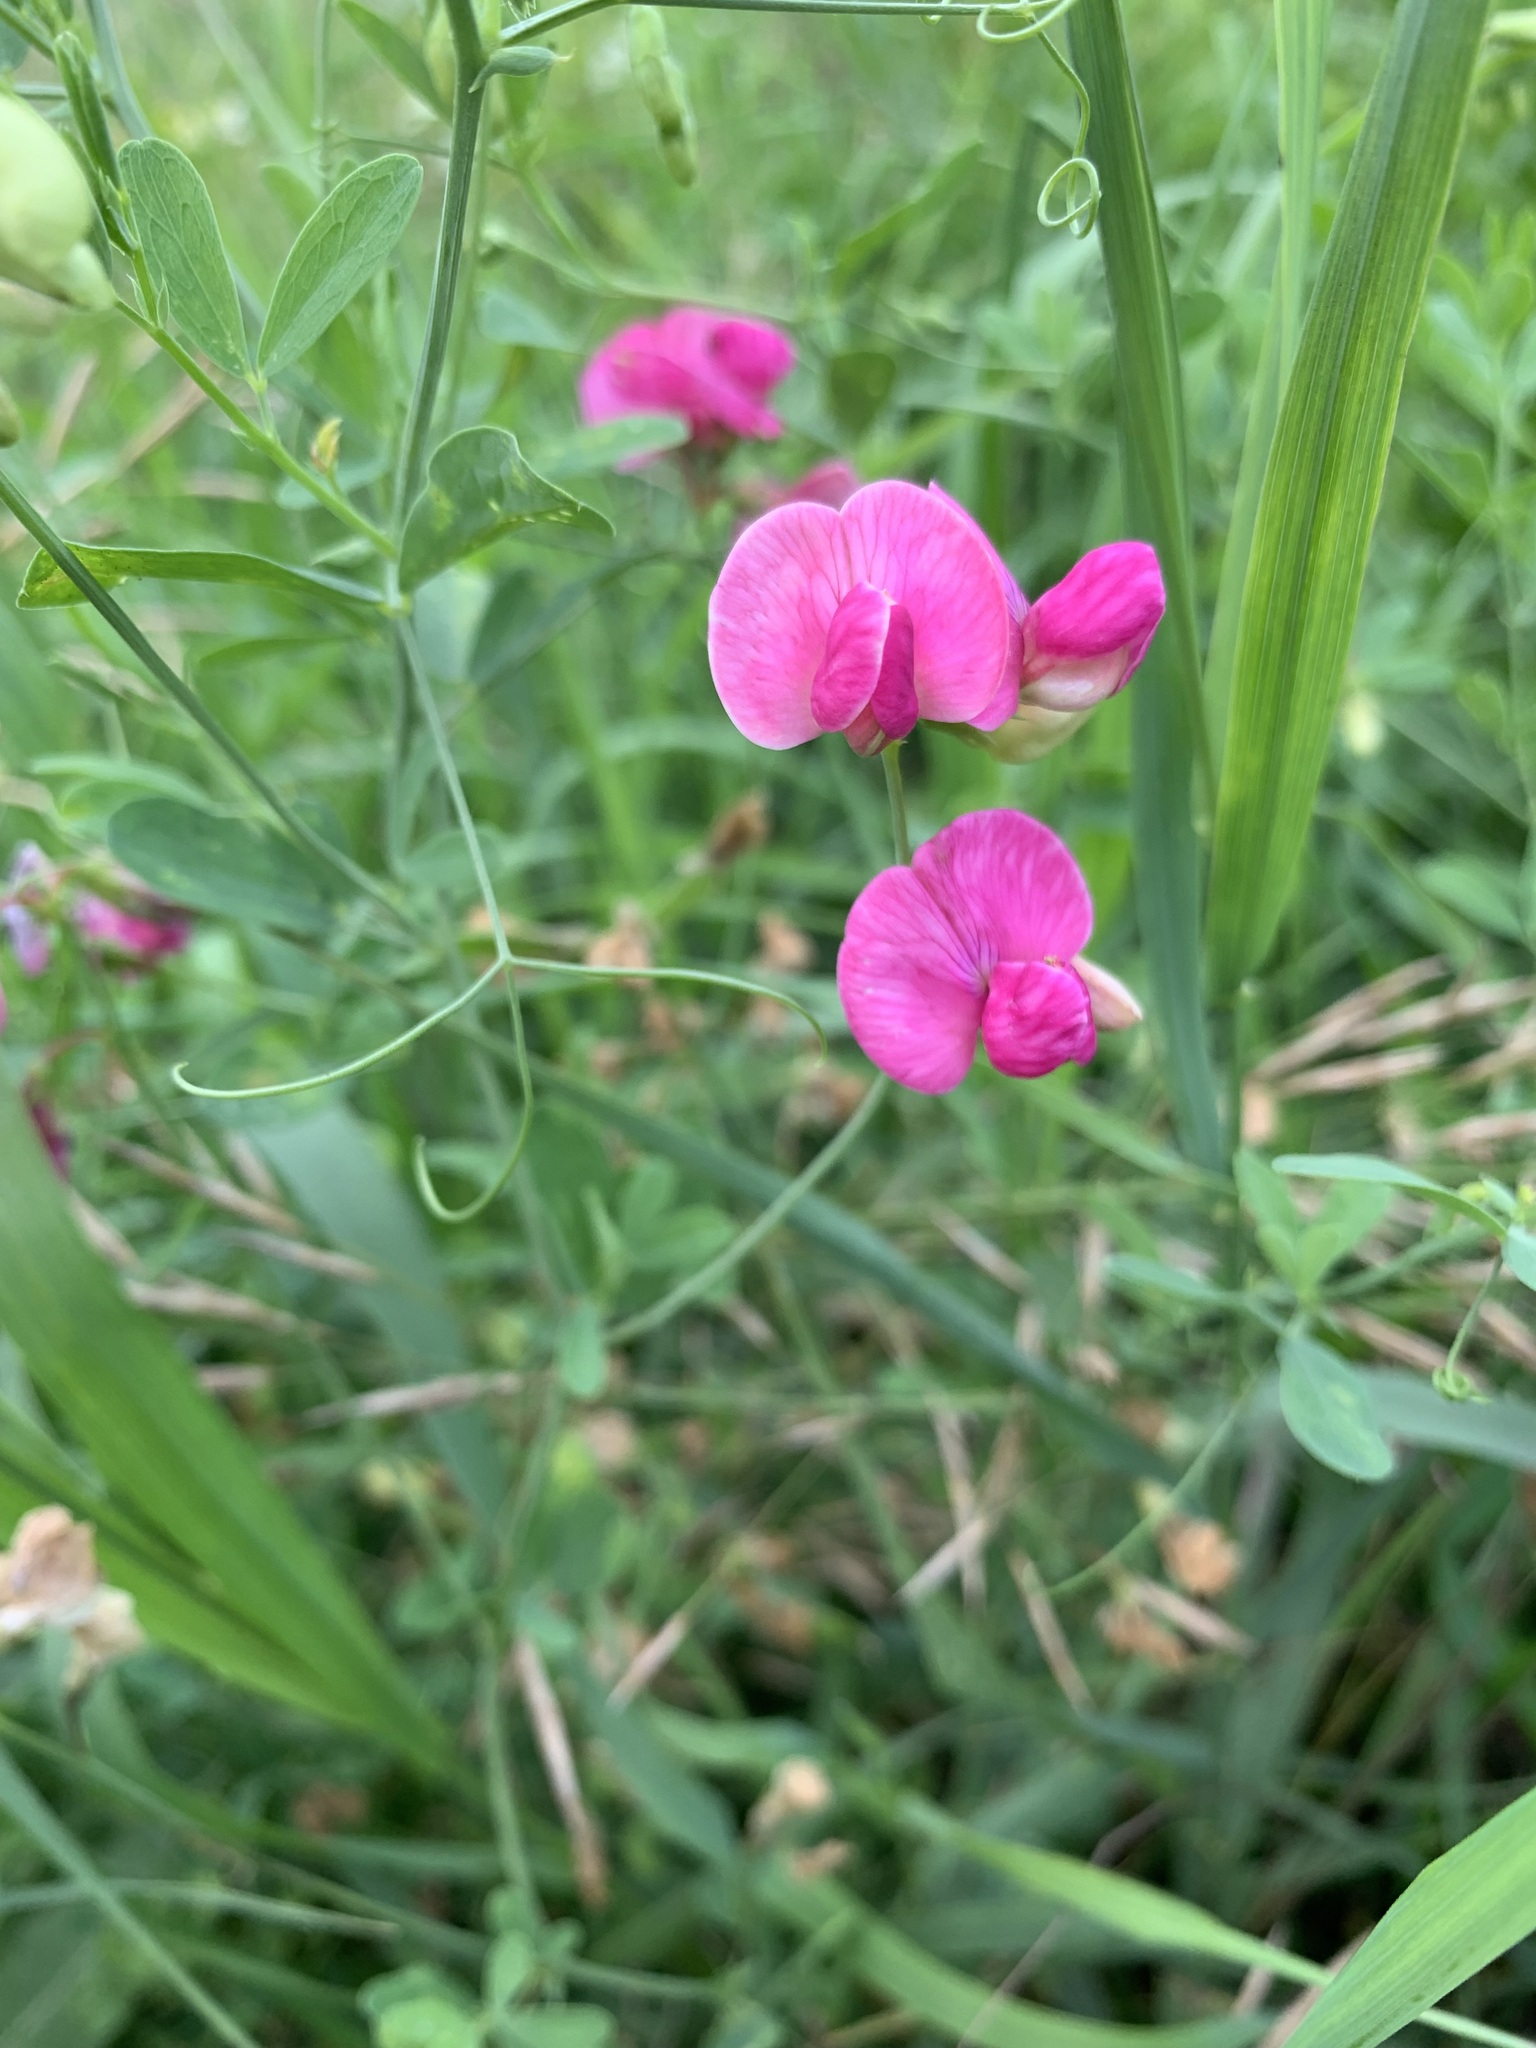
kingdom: Plantae
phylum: Tracheophyta
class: Magnoliopsida
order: Fabales
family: Fabaceae
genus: Lathyrus
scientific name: Lathyrus tuberosus
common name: Tuberous pea
